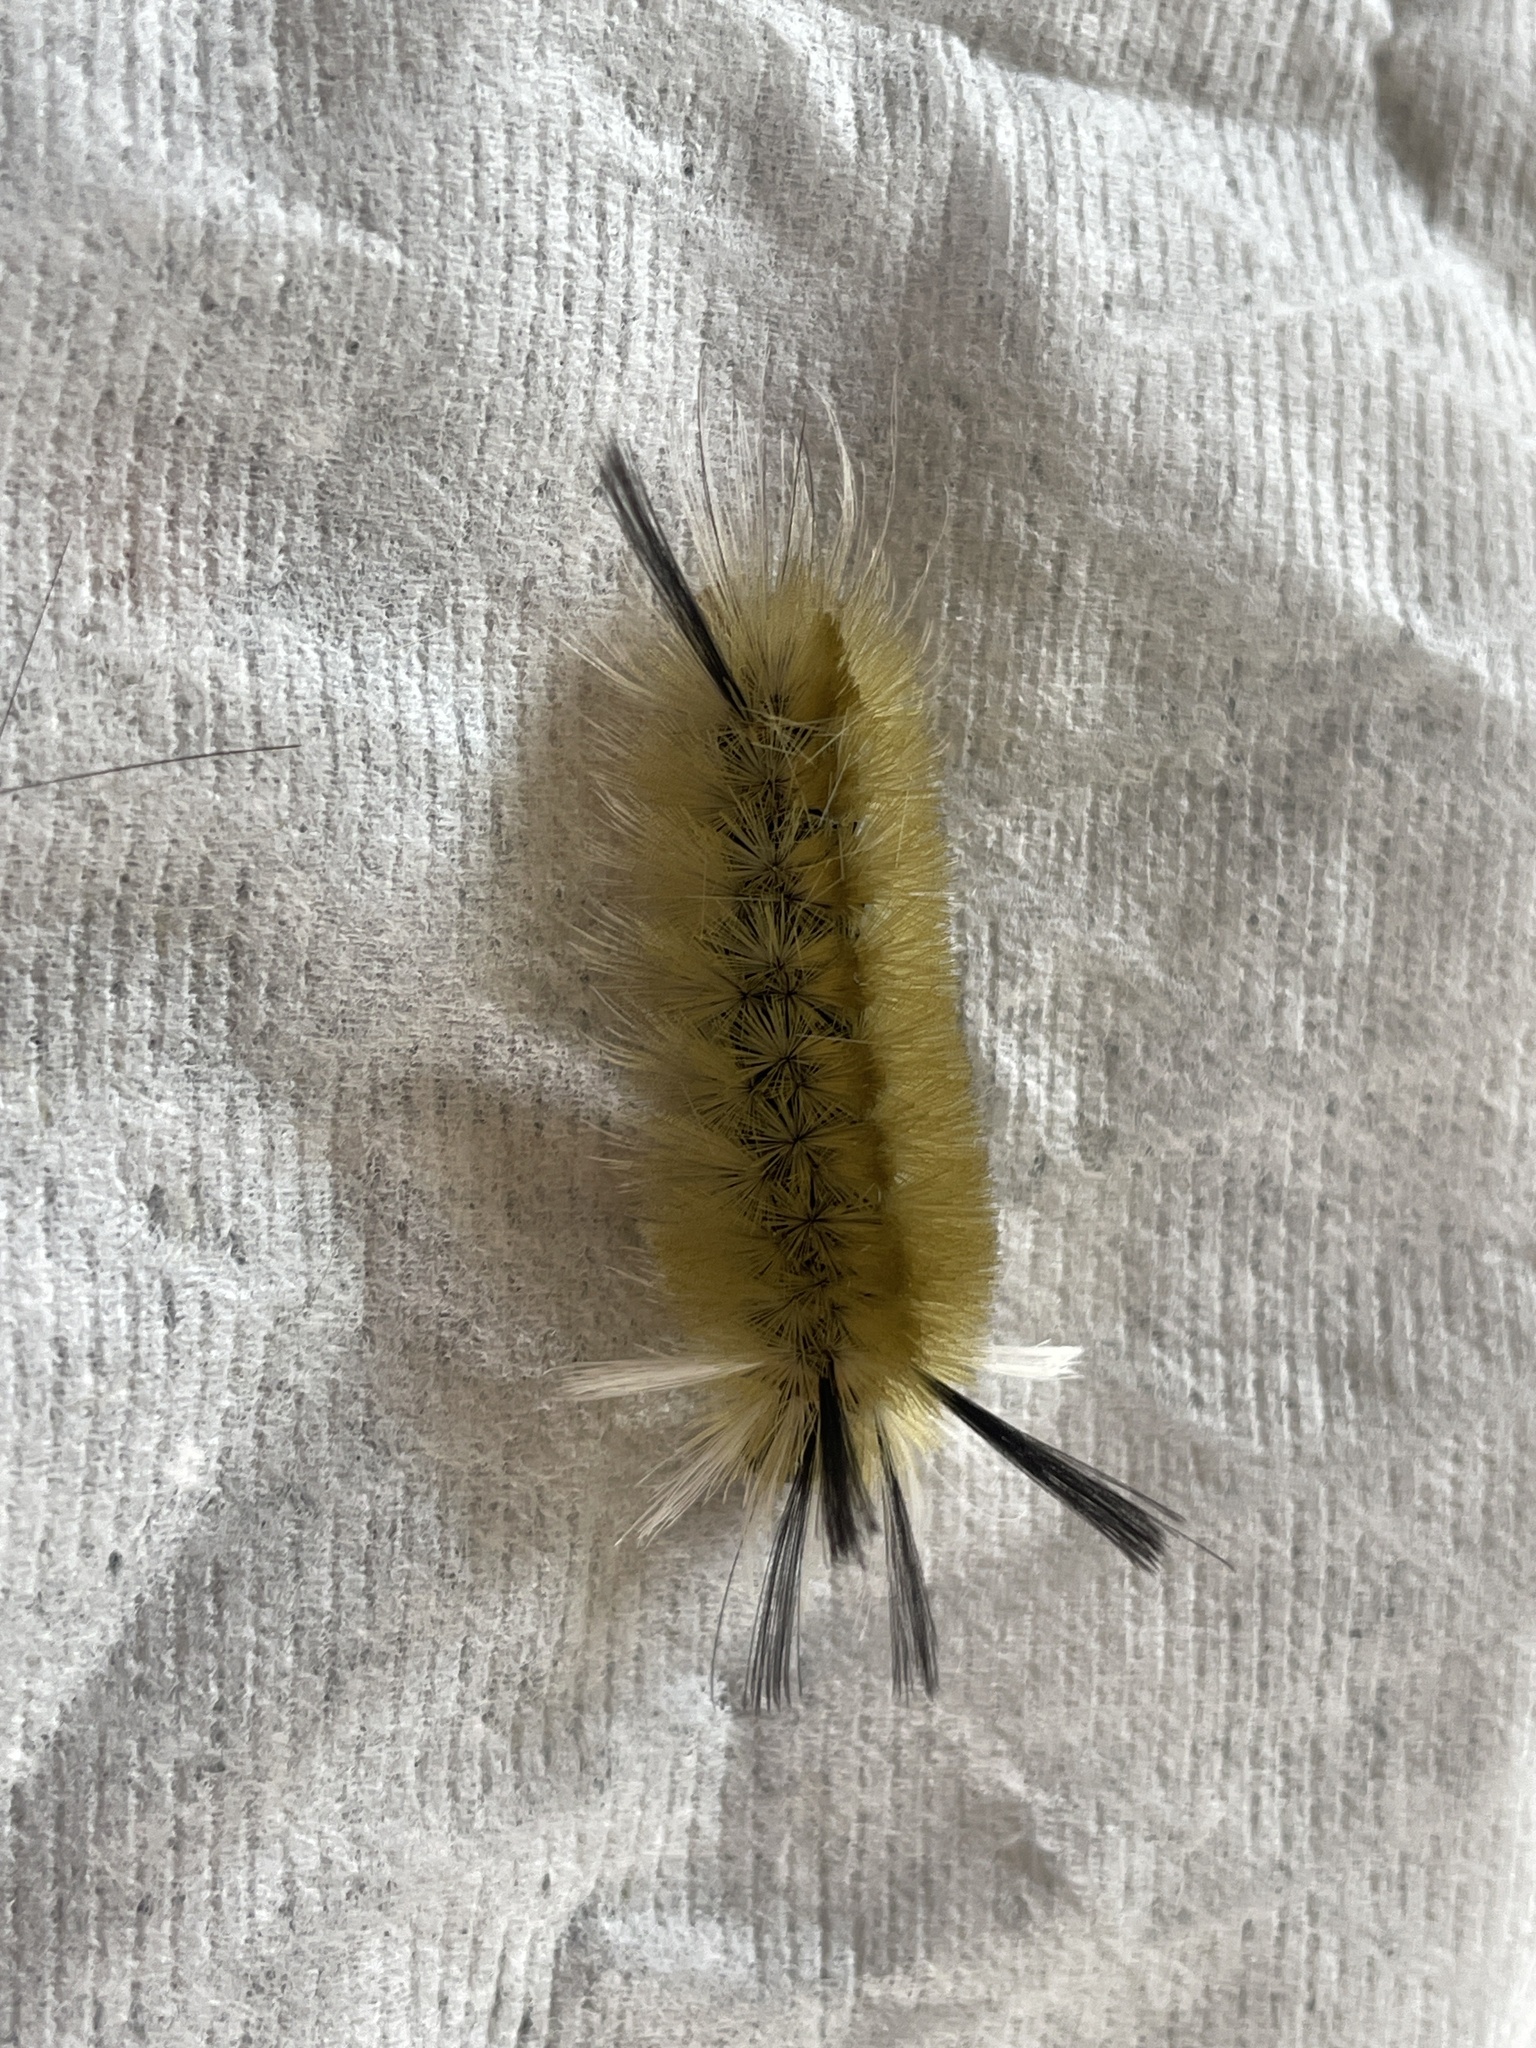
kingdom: Animalia
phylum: Arthropoda
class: Insecta
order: Lepidoptera
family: Erebidae
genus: Halysidota
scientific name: Halysidota tessellaris
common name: Banded tussock moth
